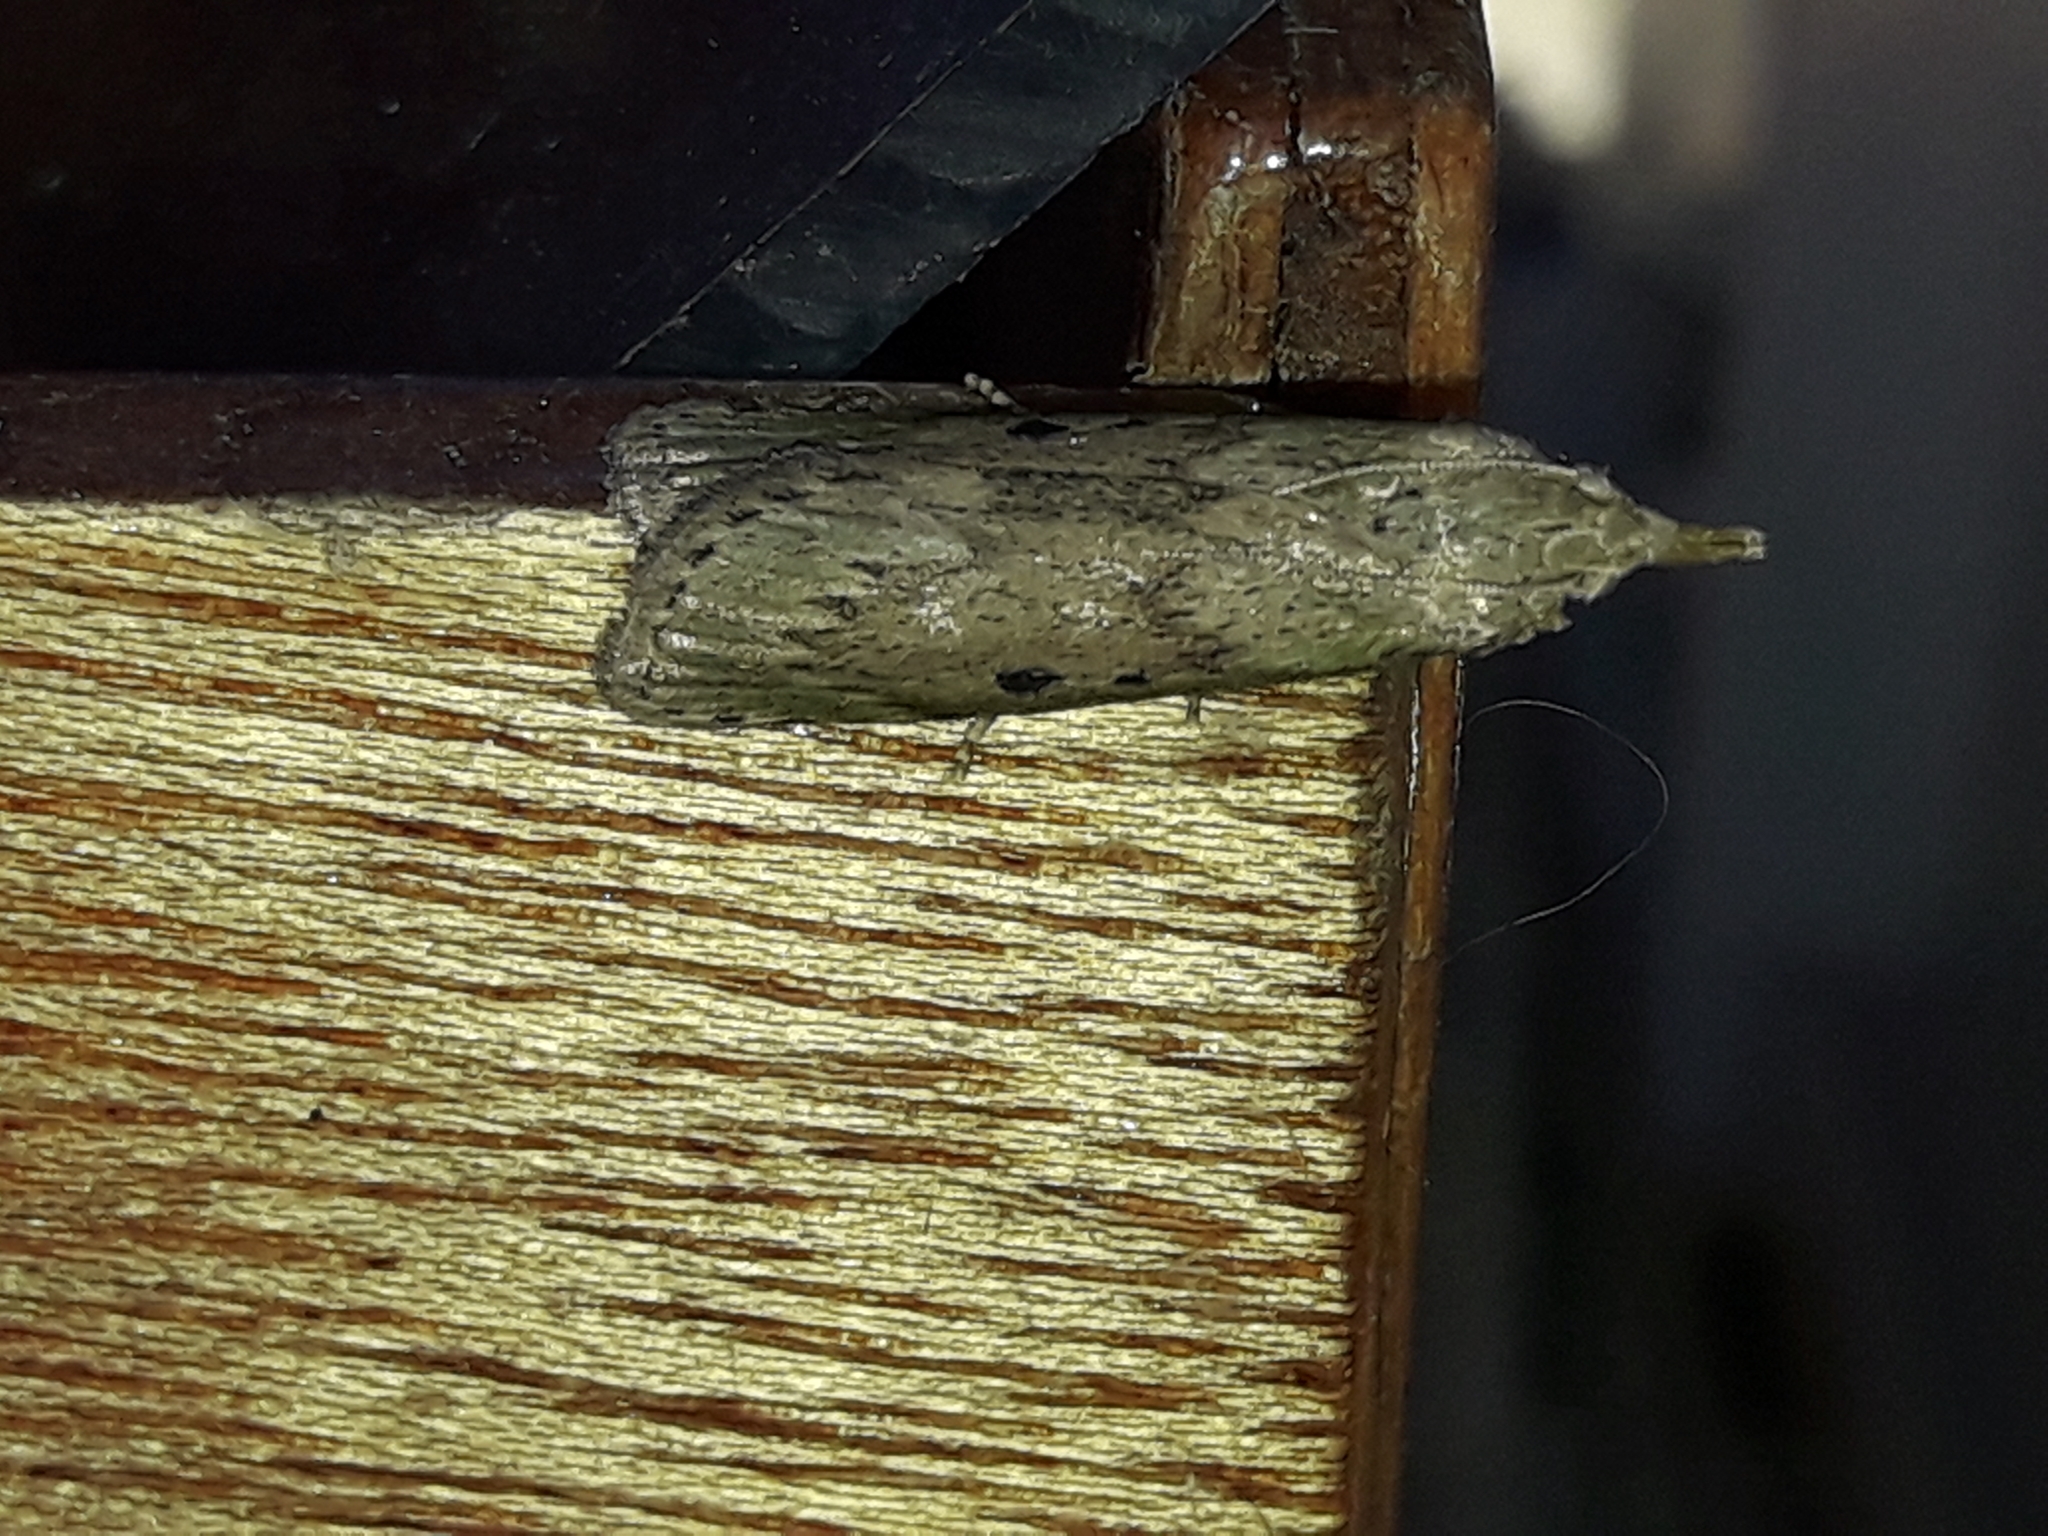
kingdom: Animalia
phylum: Arthropoda
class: Insecta
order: Lepidoptera
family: Pyralidae
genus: Aphomia
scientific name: Aphomia sociella
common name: Bee moth
